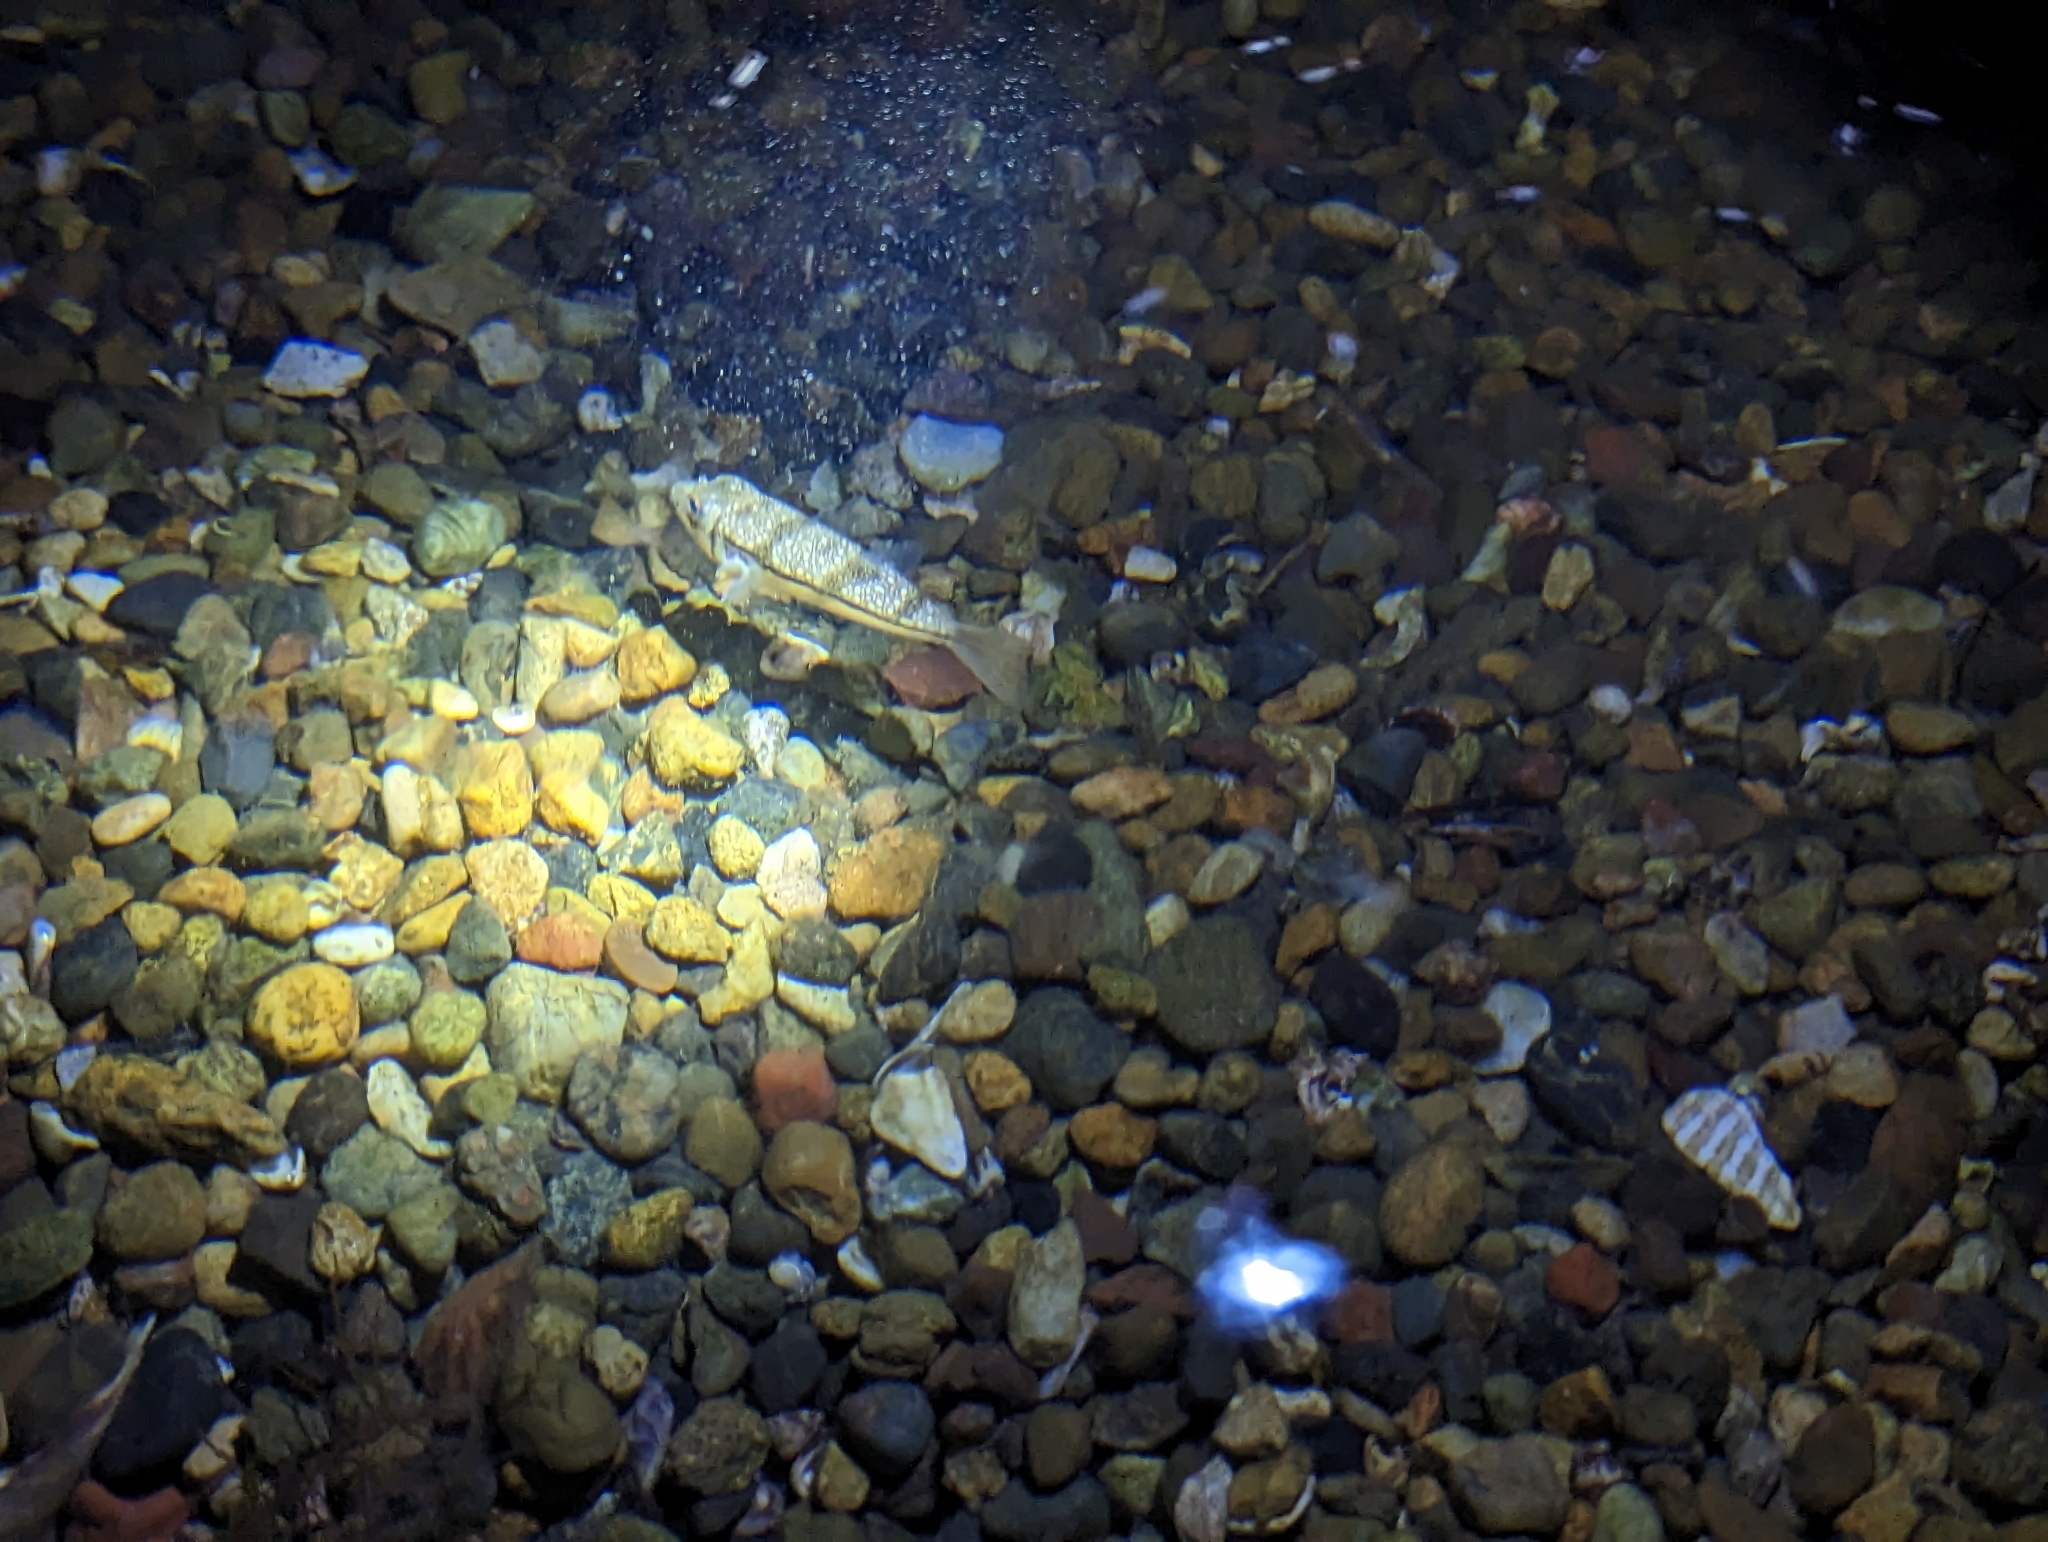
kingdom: Animalia
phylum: Chordata
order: Tetraodontiformes
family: Tetraodontidae
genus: Torquigener
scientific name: Torquigener pleurogramma
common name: Banded toadfish
